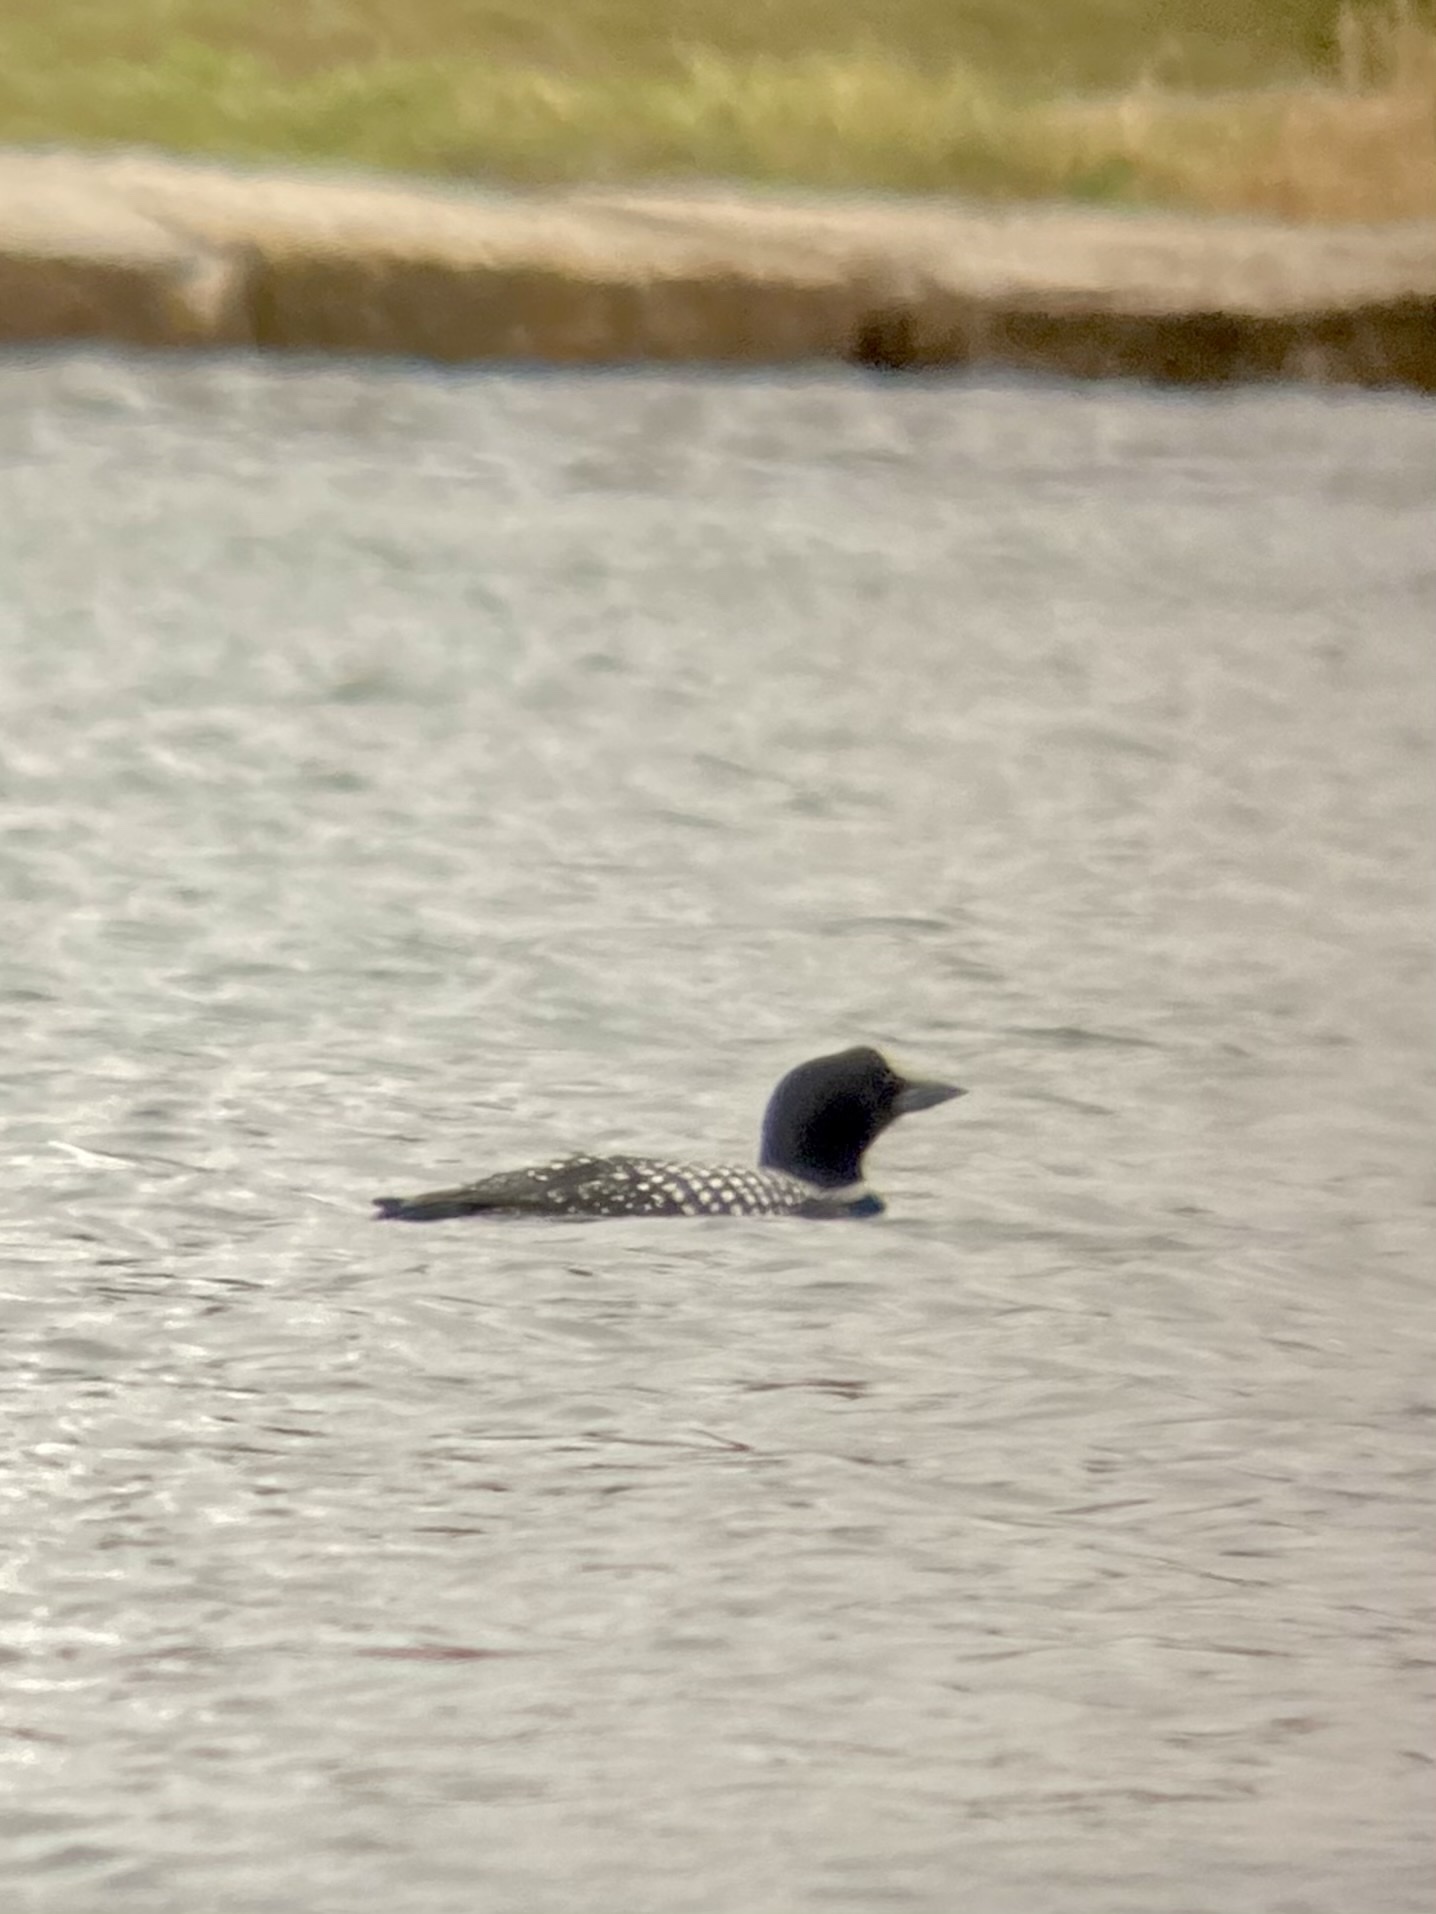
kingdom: Animalia
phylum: Chordata
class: Aves
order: Gaviiformes
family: Gaviidae
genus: Gavia
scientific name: Gavia immer
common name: Common loon
